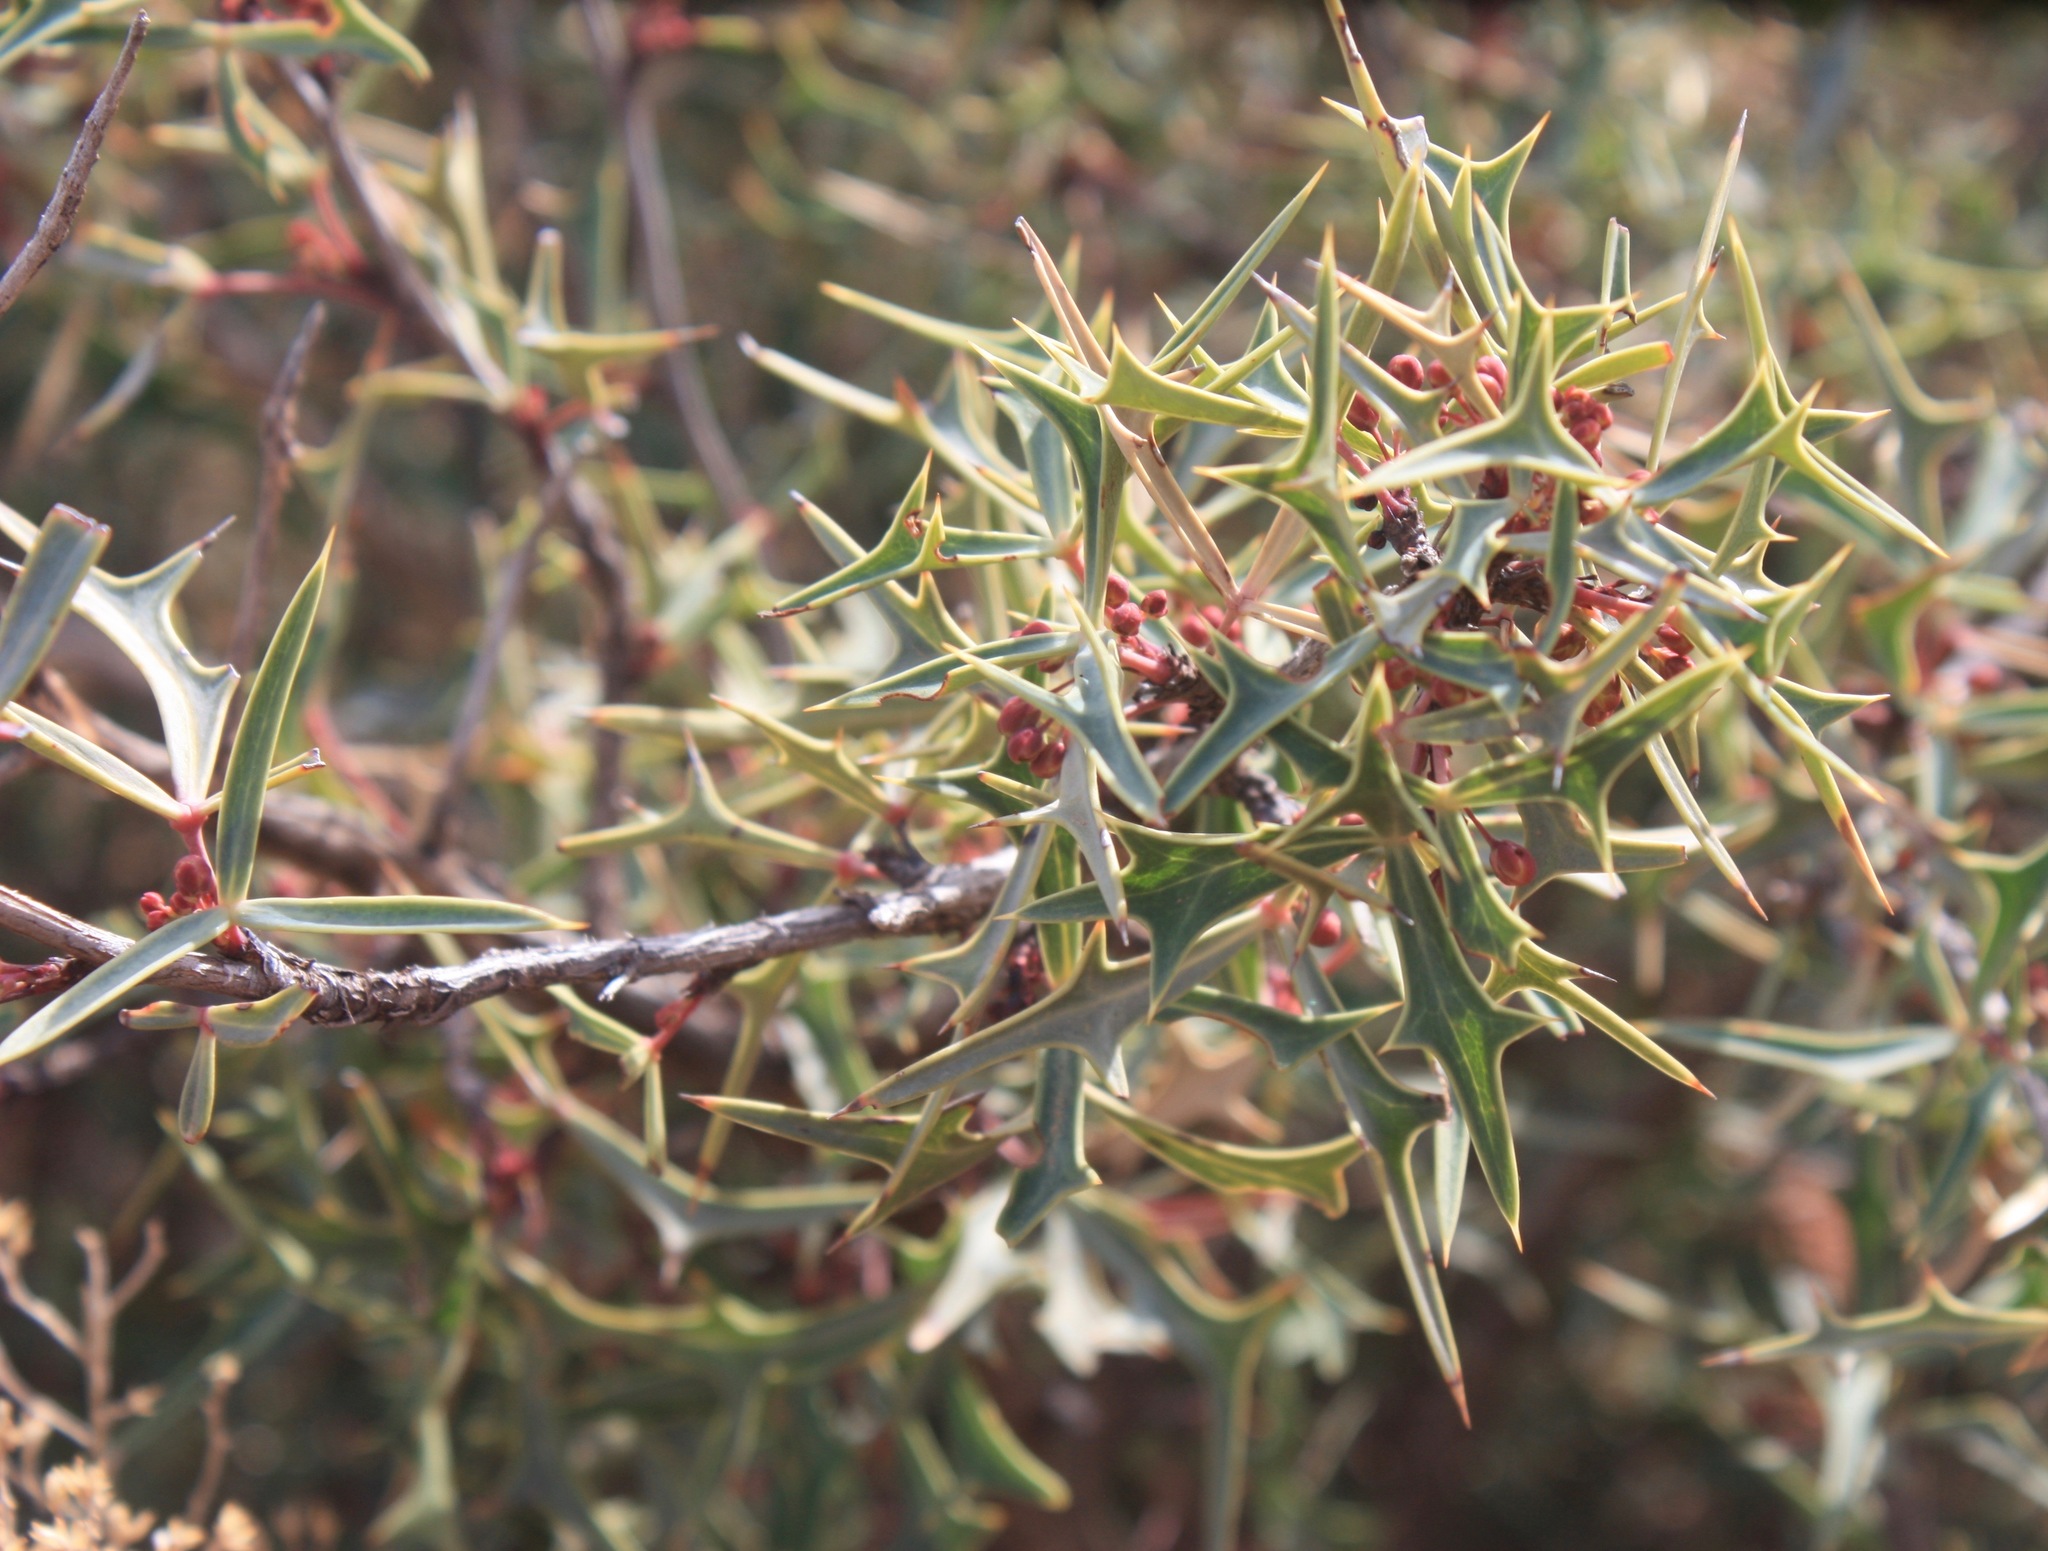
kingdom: Plantae
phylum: Tracheophyta
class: Magnoliopsida
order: Ranunculales
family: Berberidaceae
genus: Alloberberis
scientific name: Alloberberis trifoliolata
